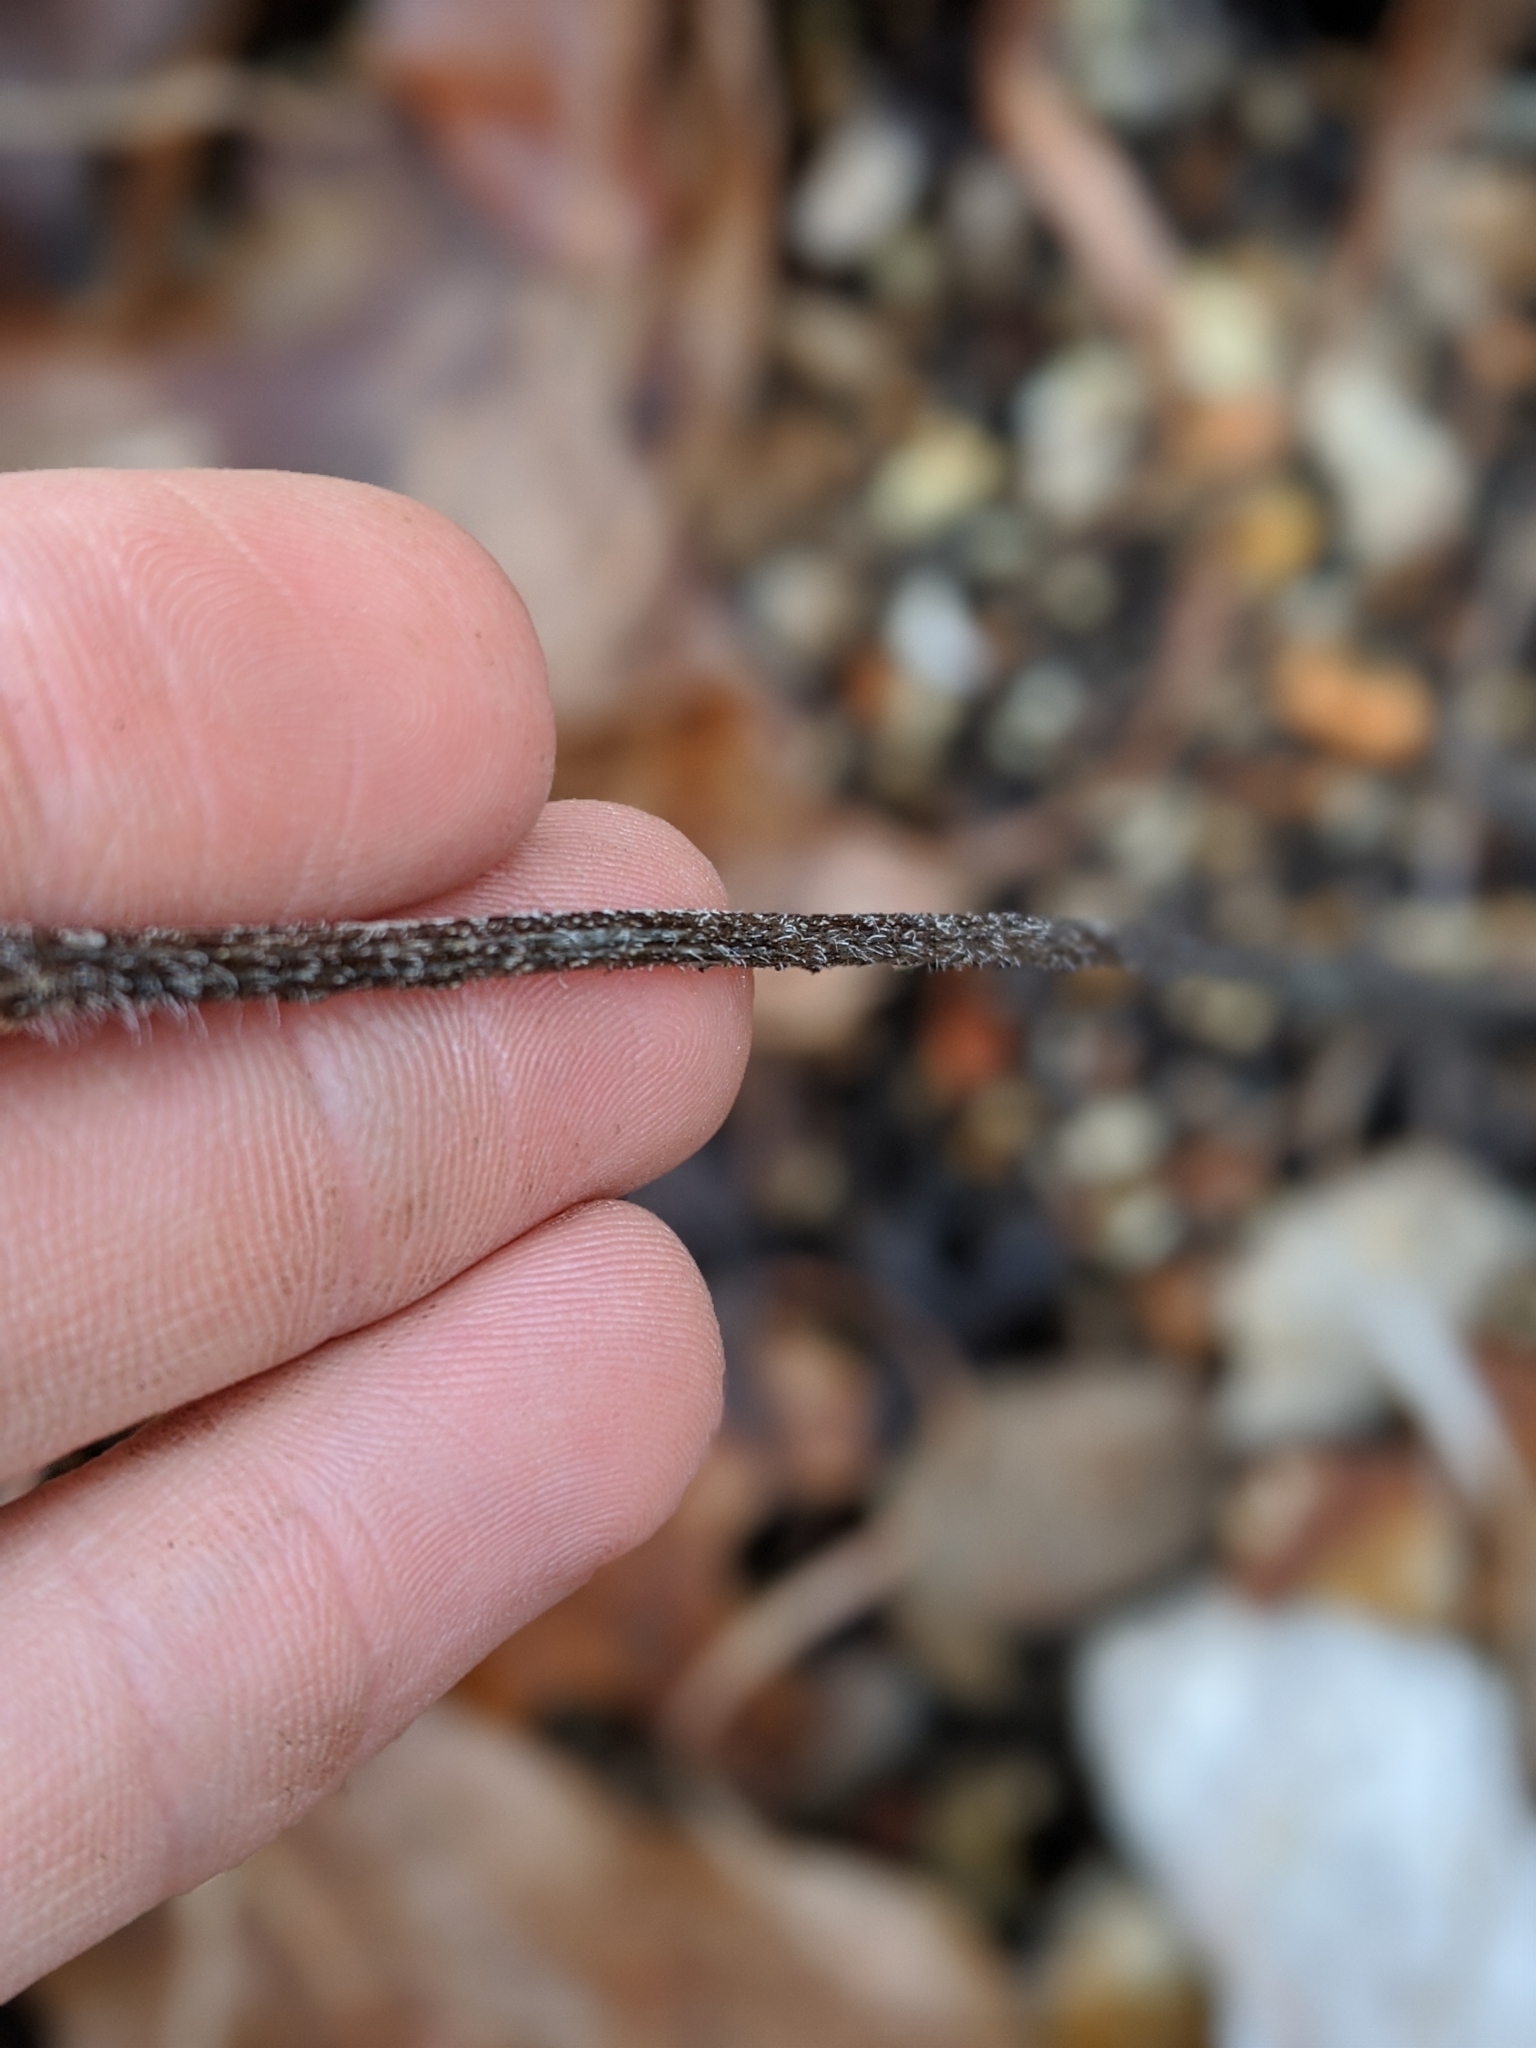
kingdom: Plantae
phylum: Tracheophyta
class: Magnoliopsida
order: Asterales
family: Asteraceae
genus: Parthenium
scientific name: Parthenium hispidum
